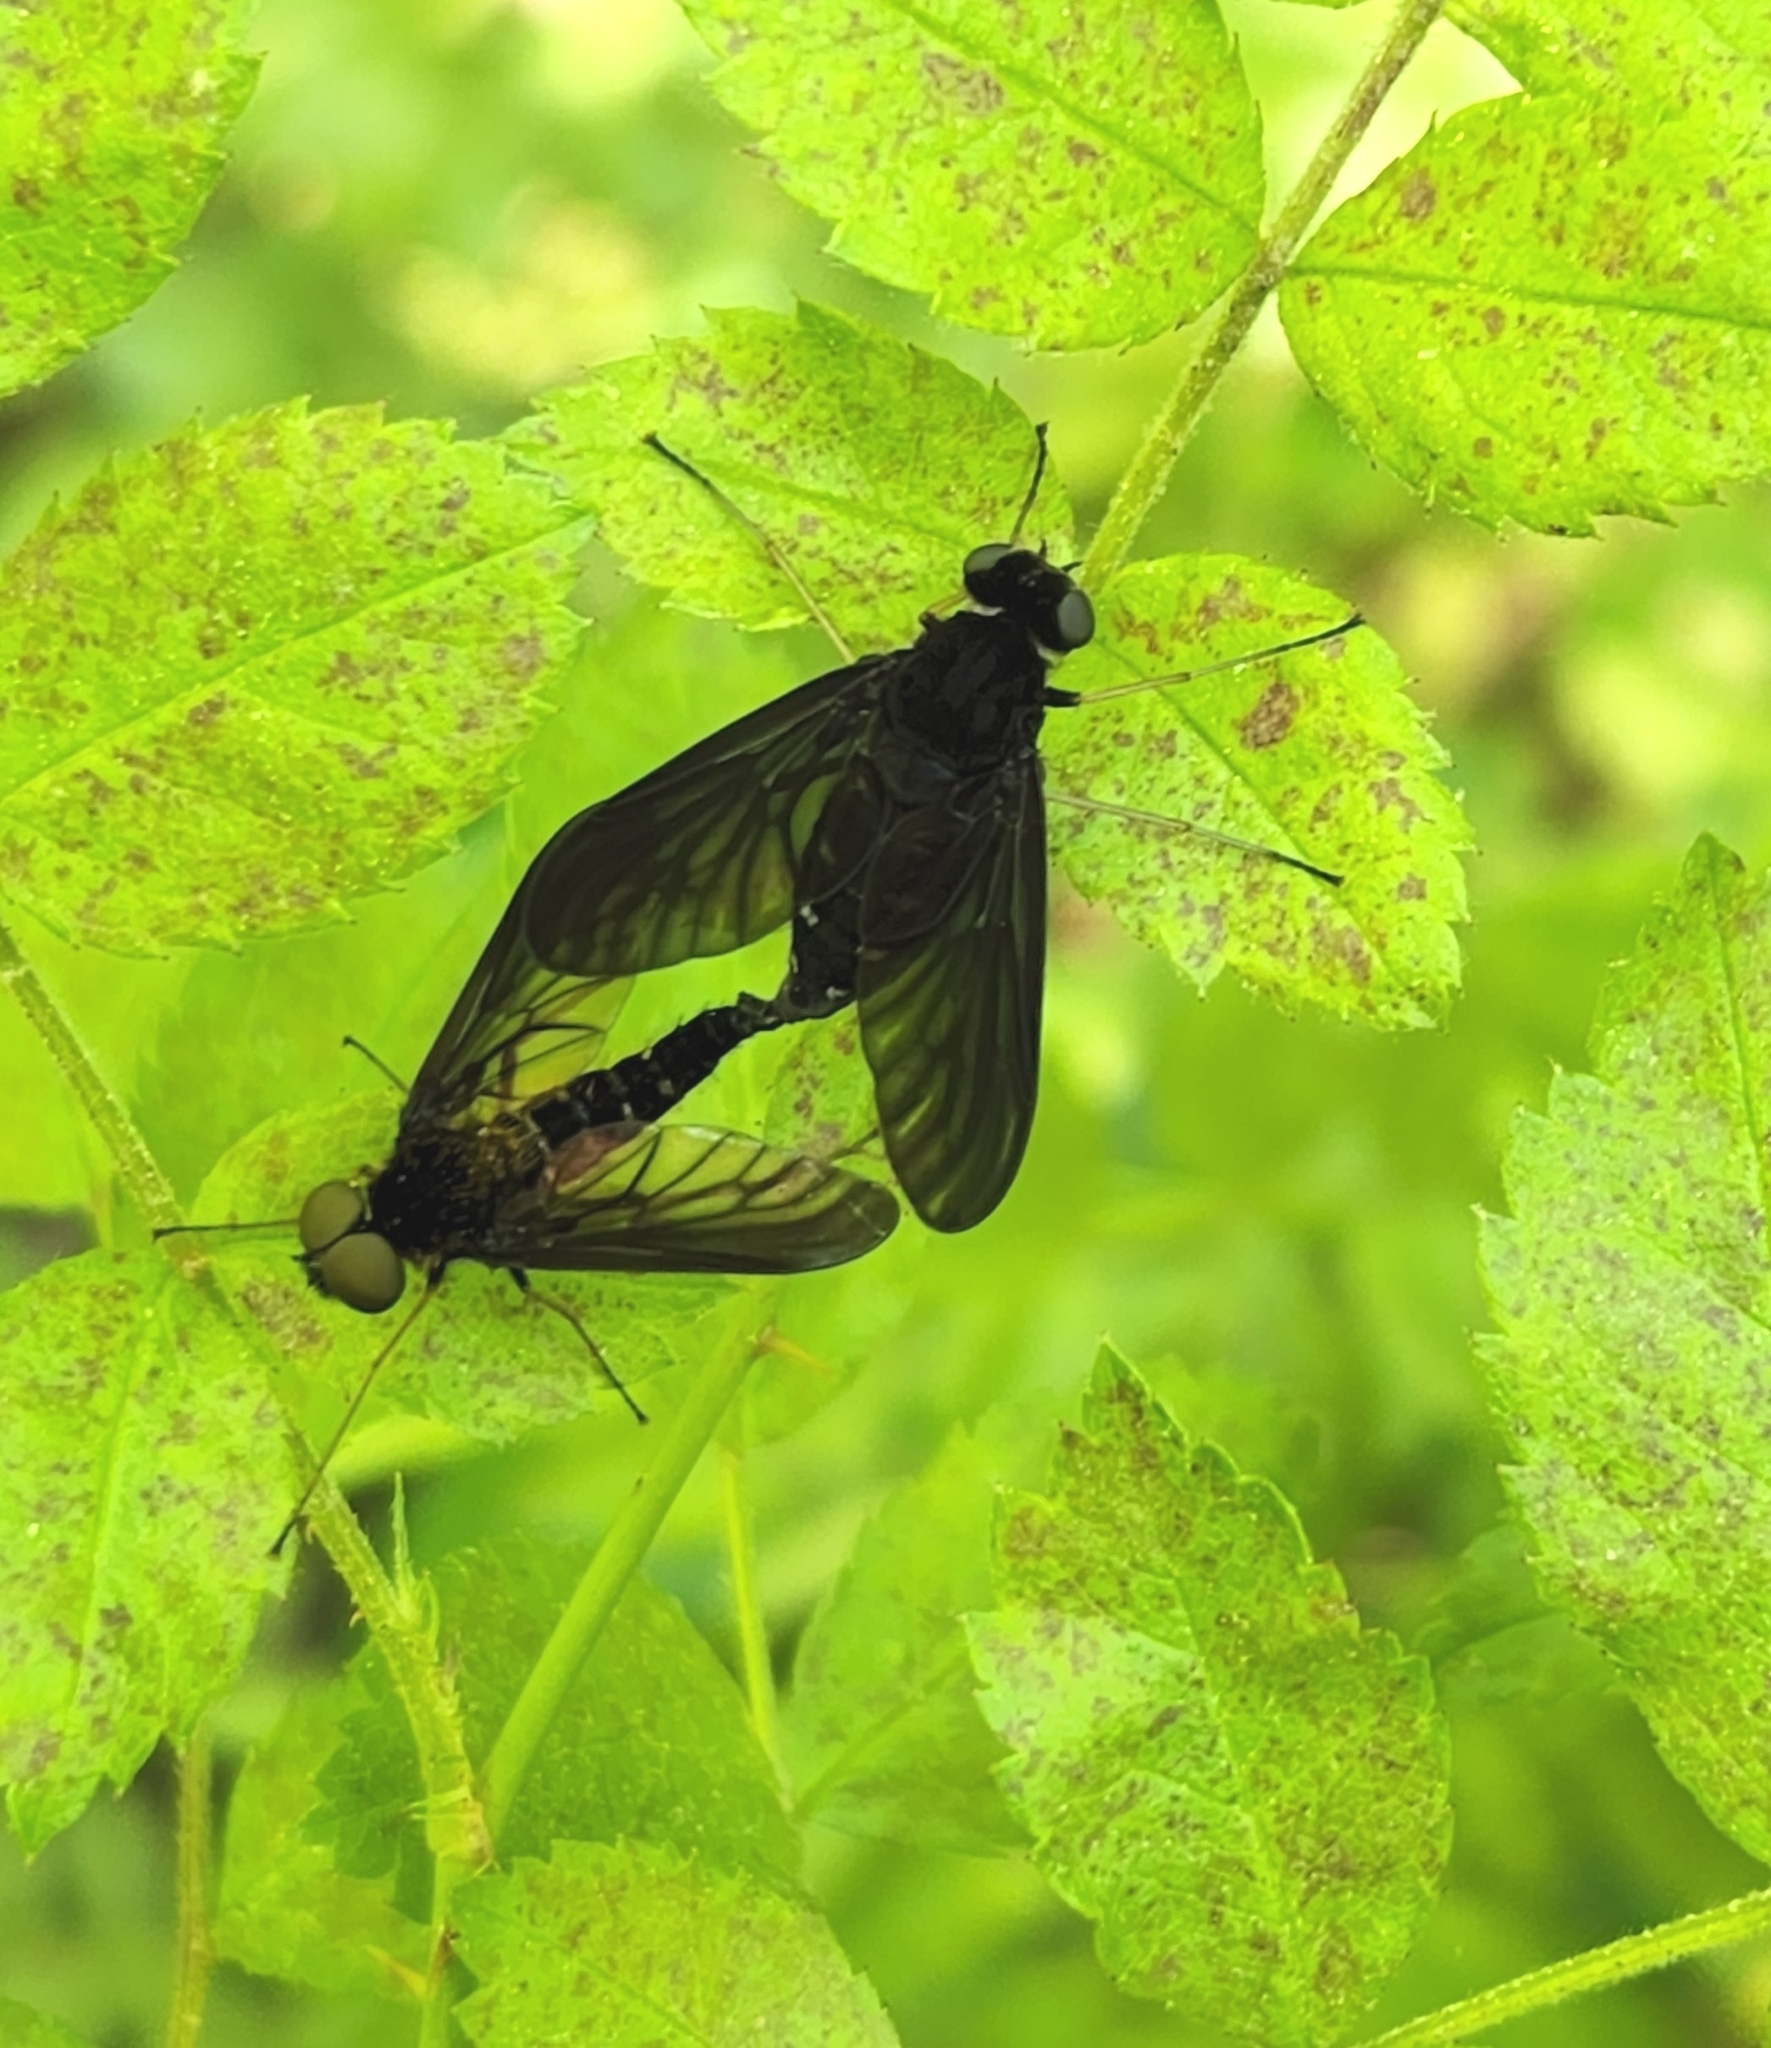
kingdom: Animalia
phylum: Arthropoda
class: Insecta
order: Diptera
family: Rhagionidae
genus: Chrysopilus
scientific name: Chrysopilus velutinus
